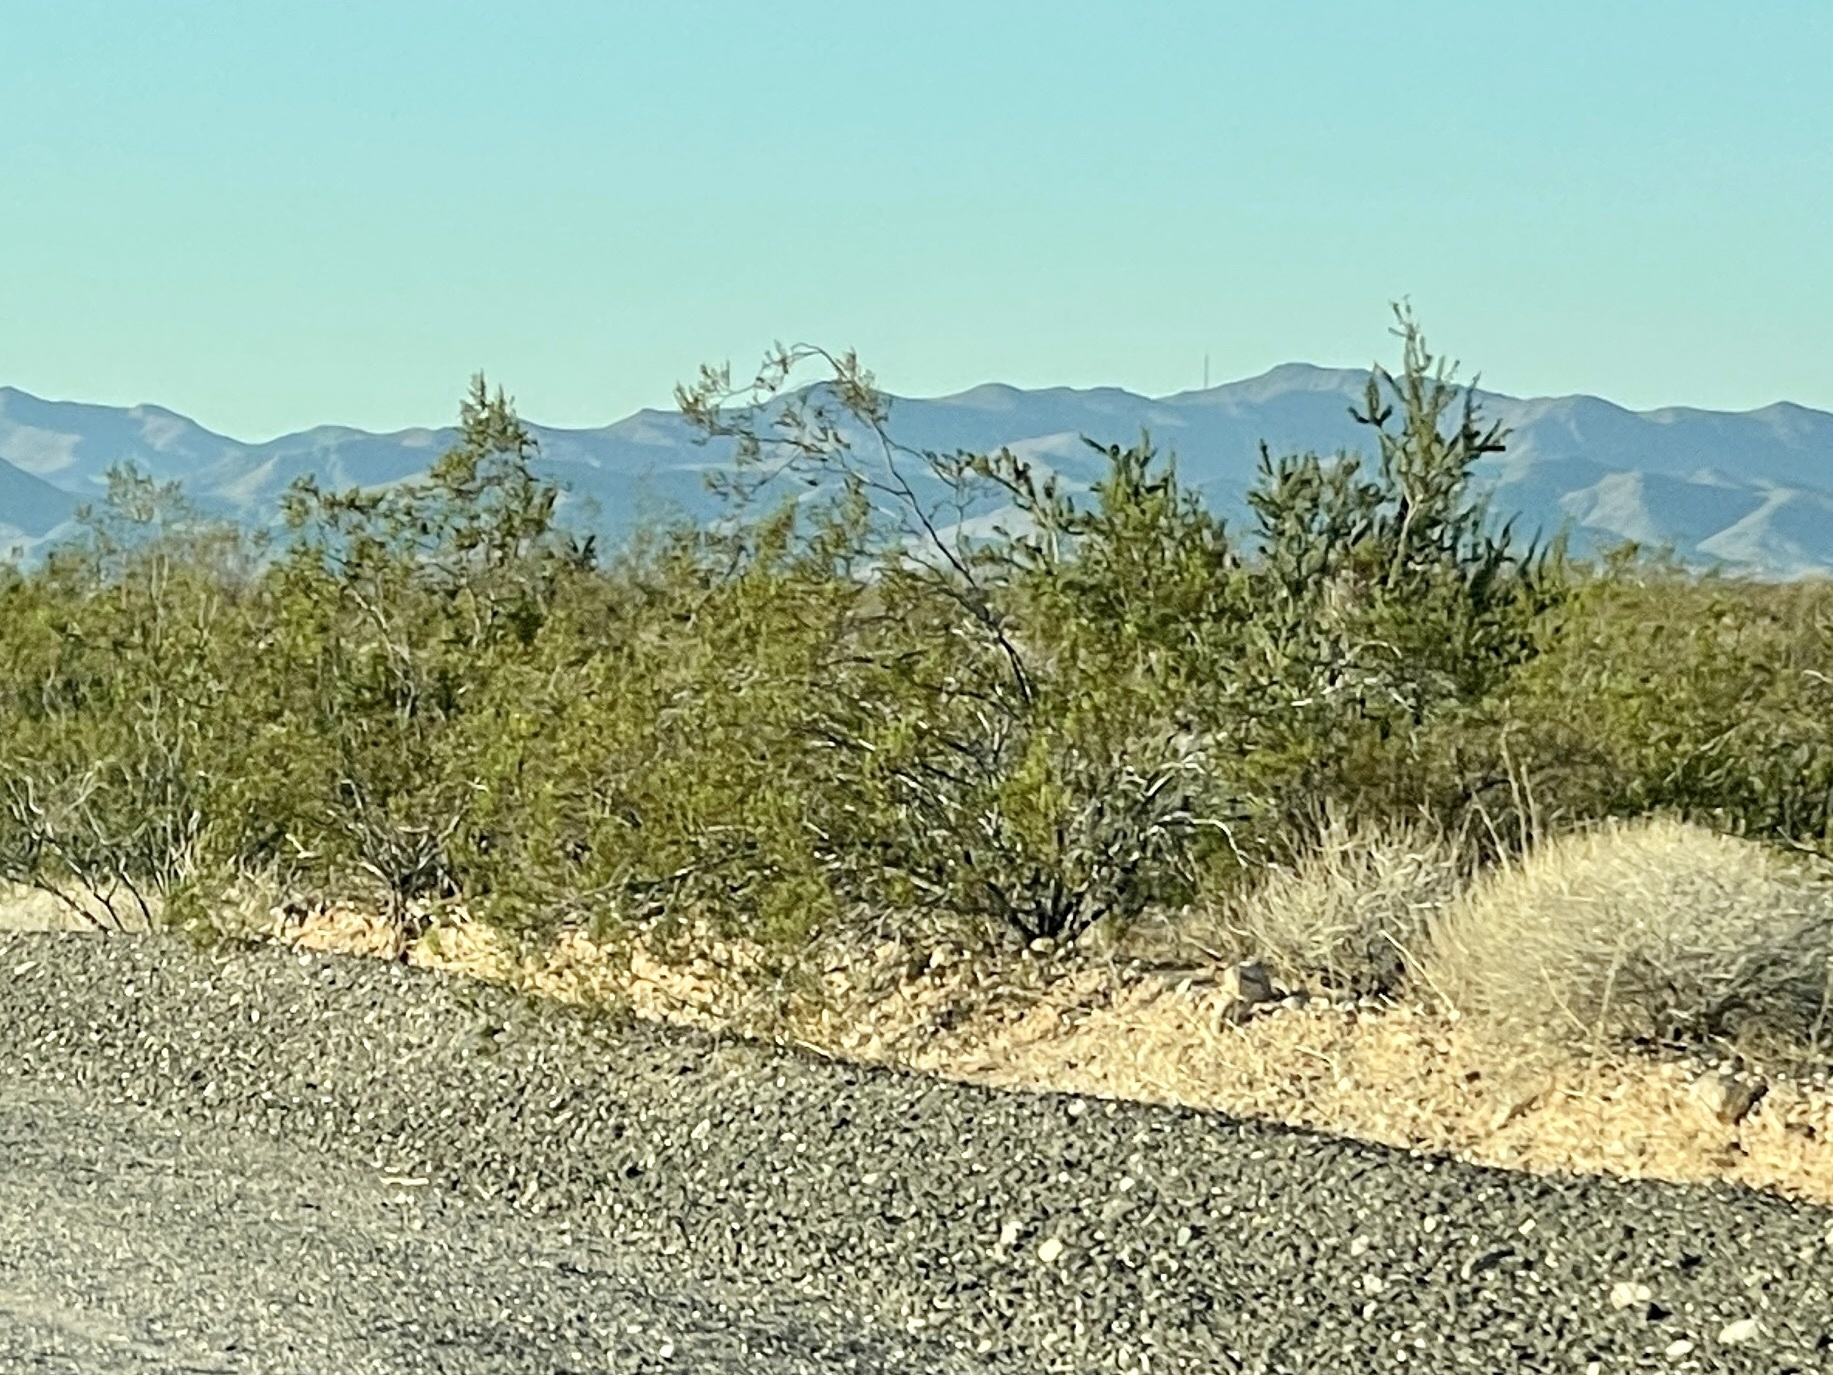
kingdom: Plantae
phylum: Tracheophyta
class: Magnoliopsida
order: Zygophyllales
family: Zygophyllaceae
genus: Larrea
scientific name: Larrea tridentata
